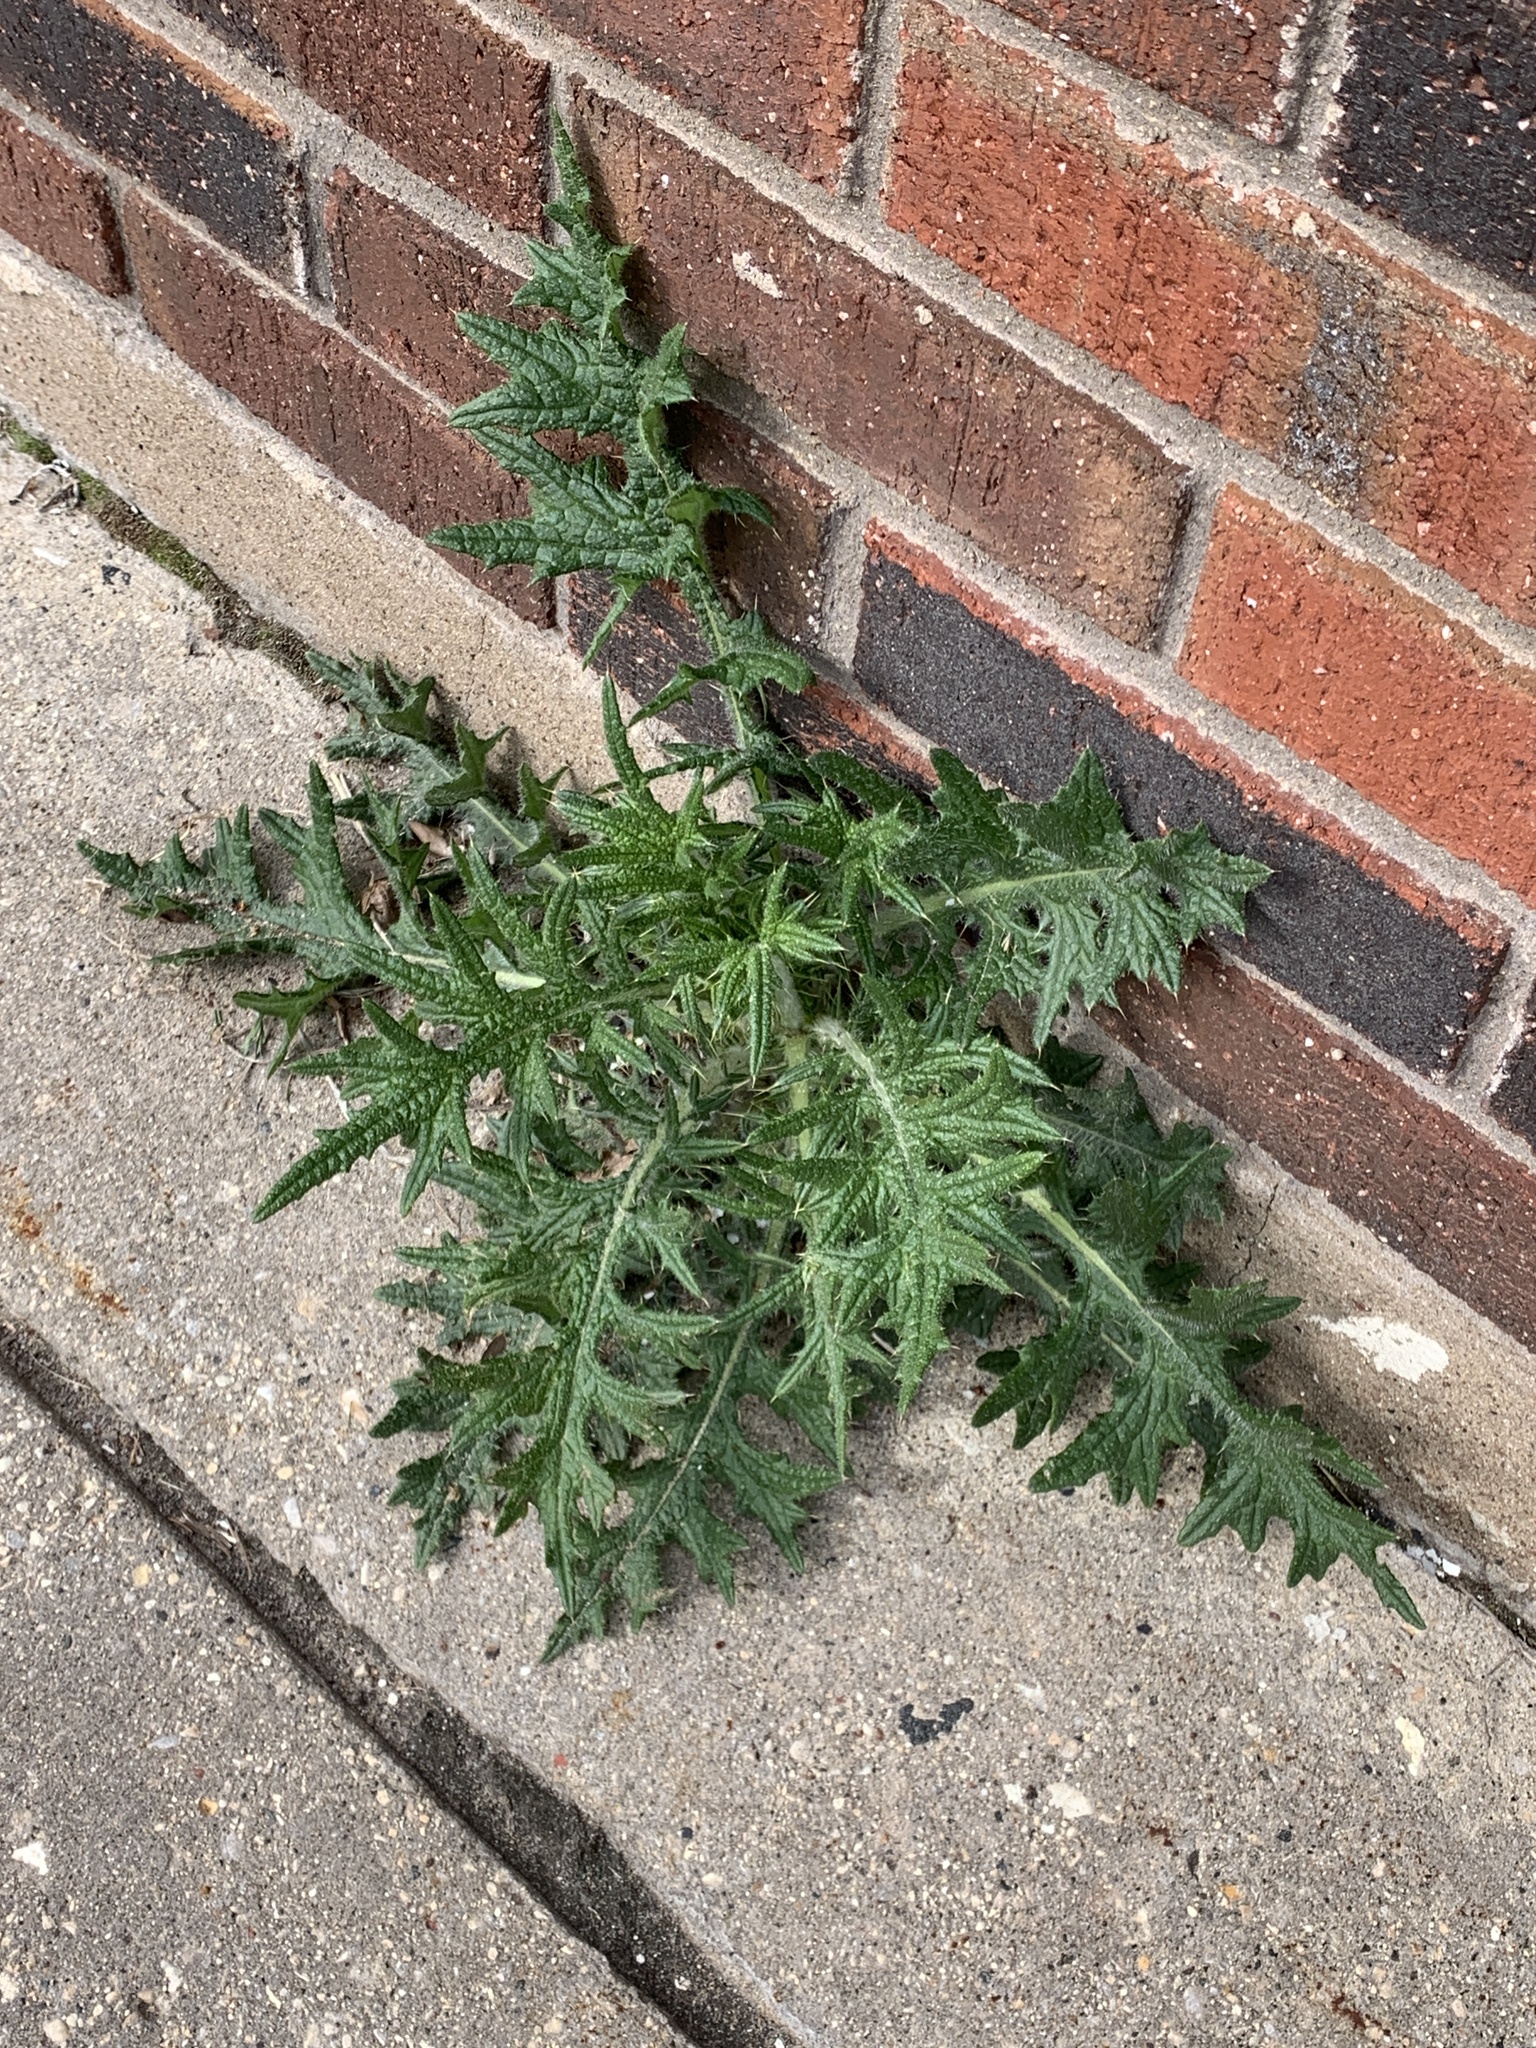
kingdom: Plantae
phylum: Tracheophyta
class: Magnoliopsida
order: Asterales
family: Asteraceae
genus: Cirsium
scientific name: Cirsium vulgare
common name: Bull thistle
